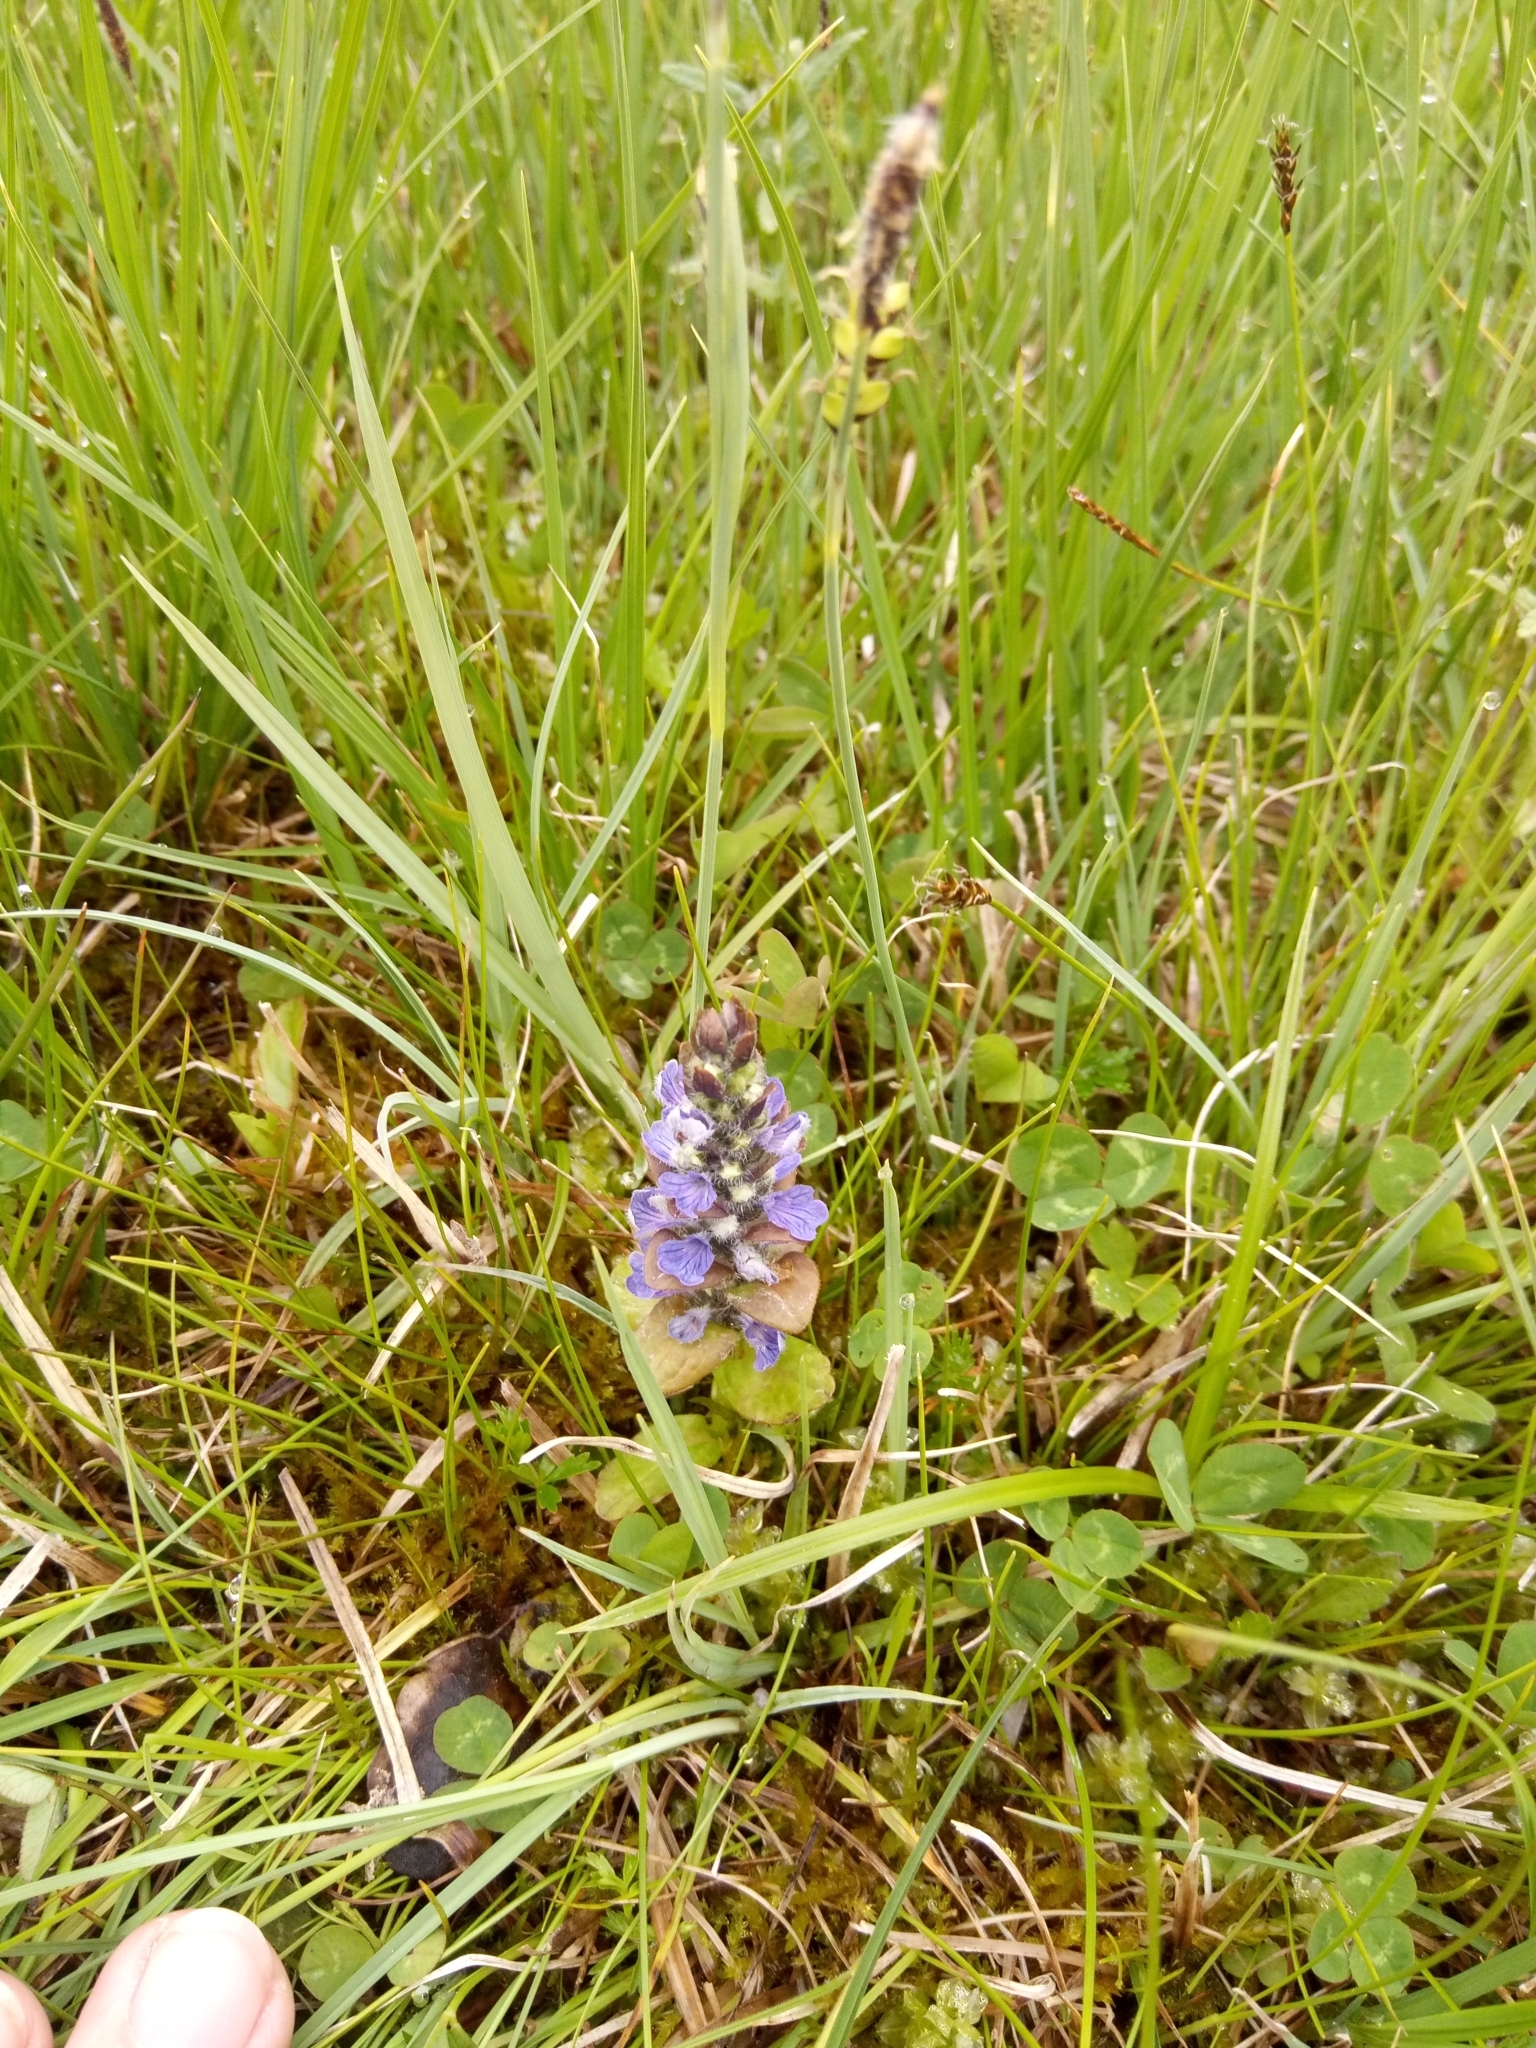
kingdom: Plantae
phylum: Tracheophyta
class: Magnoliopsida
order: Lamiales
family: Lamiaceae
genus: Ajuga
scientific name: Ajuga reptans
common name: Bugle
